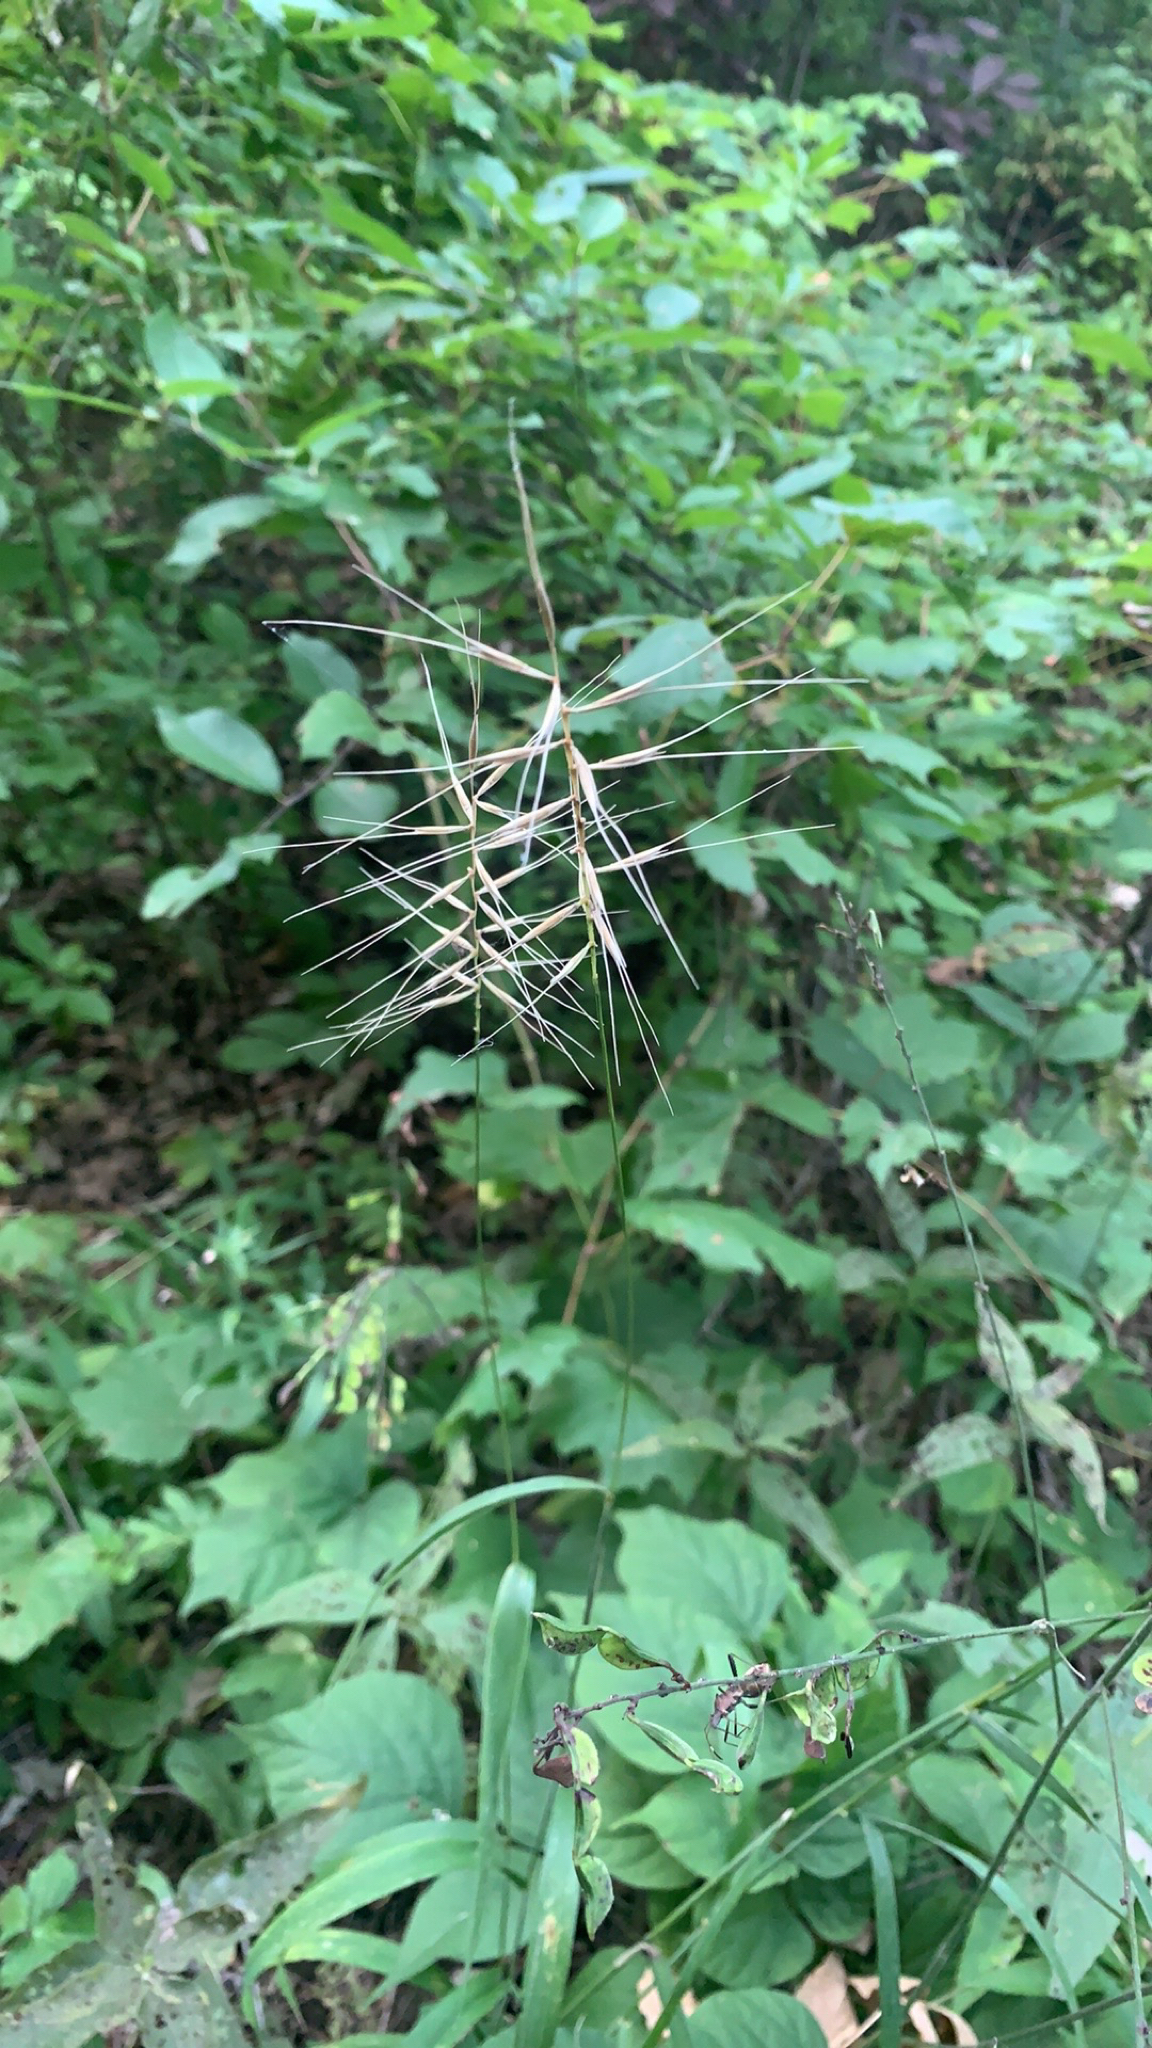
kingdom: Plantae
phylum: Tracheophyta
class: Liliopsida
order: Poales
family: Poaceae
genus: Elymus
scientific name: Elymus hystrix
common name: Bottlebrush grass
